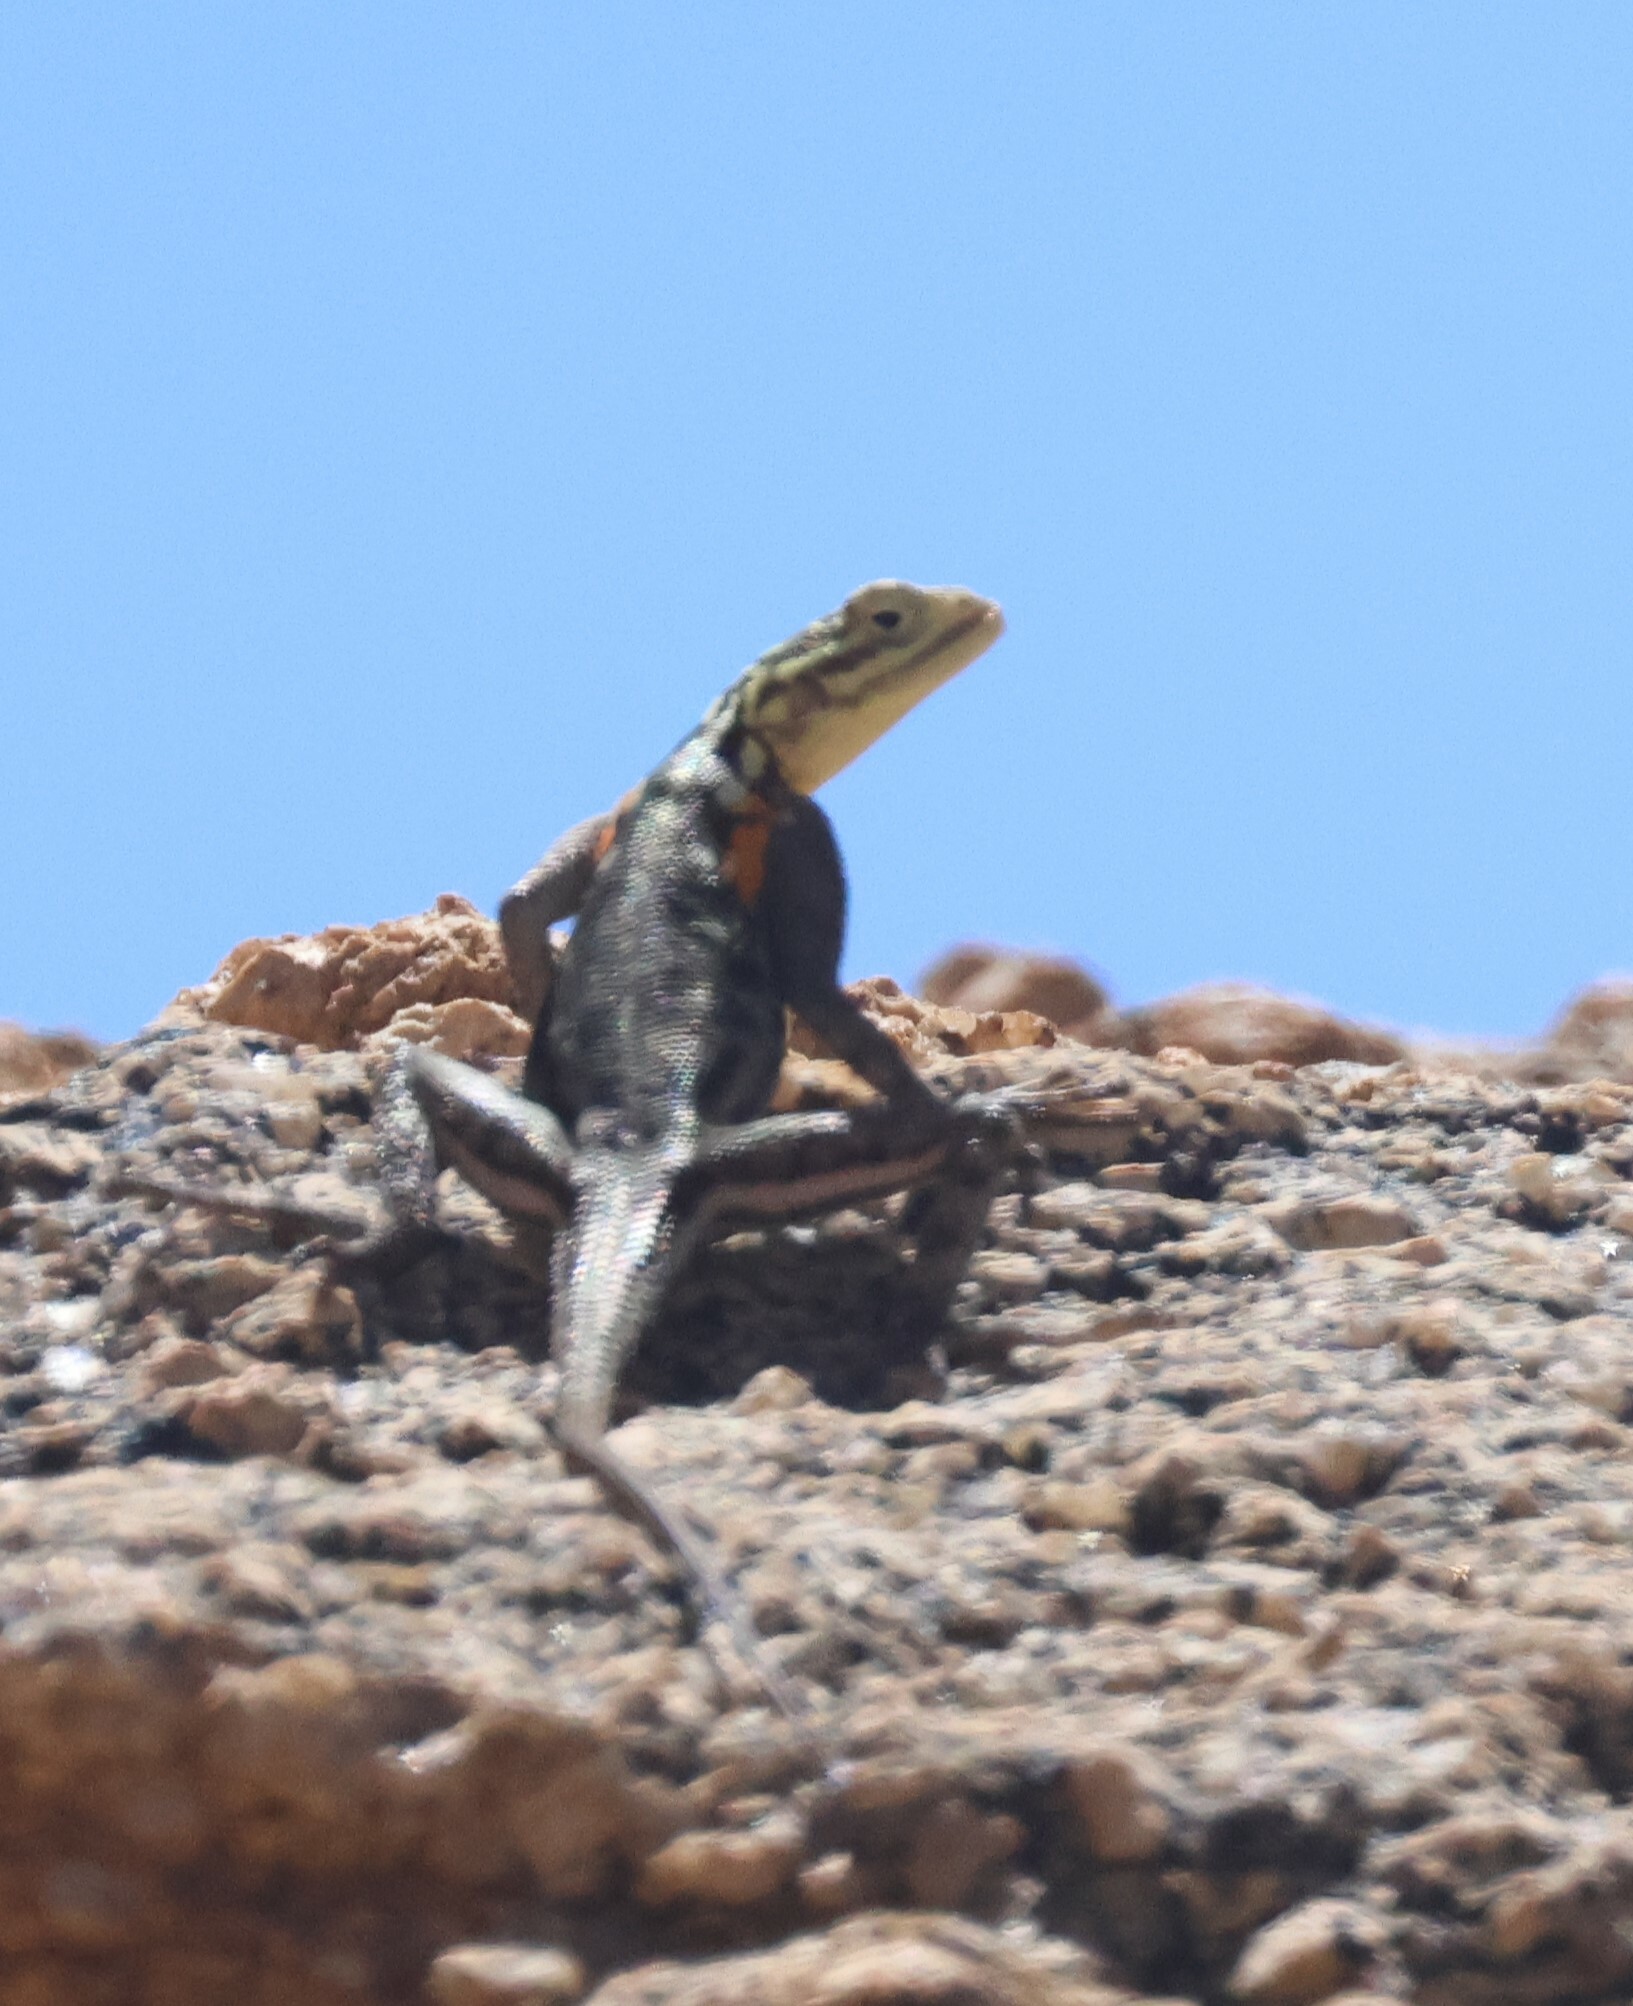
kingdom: Animalia
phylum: Chordata
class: Squamata
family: Agamidae
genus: Agama
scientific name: Agama planiceps
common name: Namib rock agama
